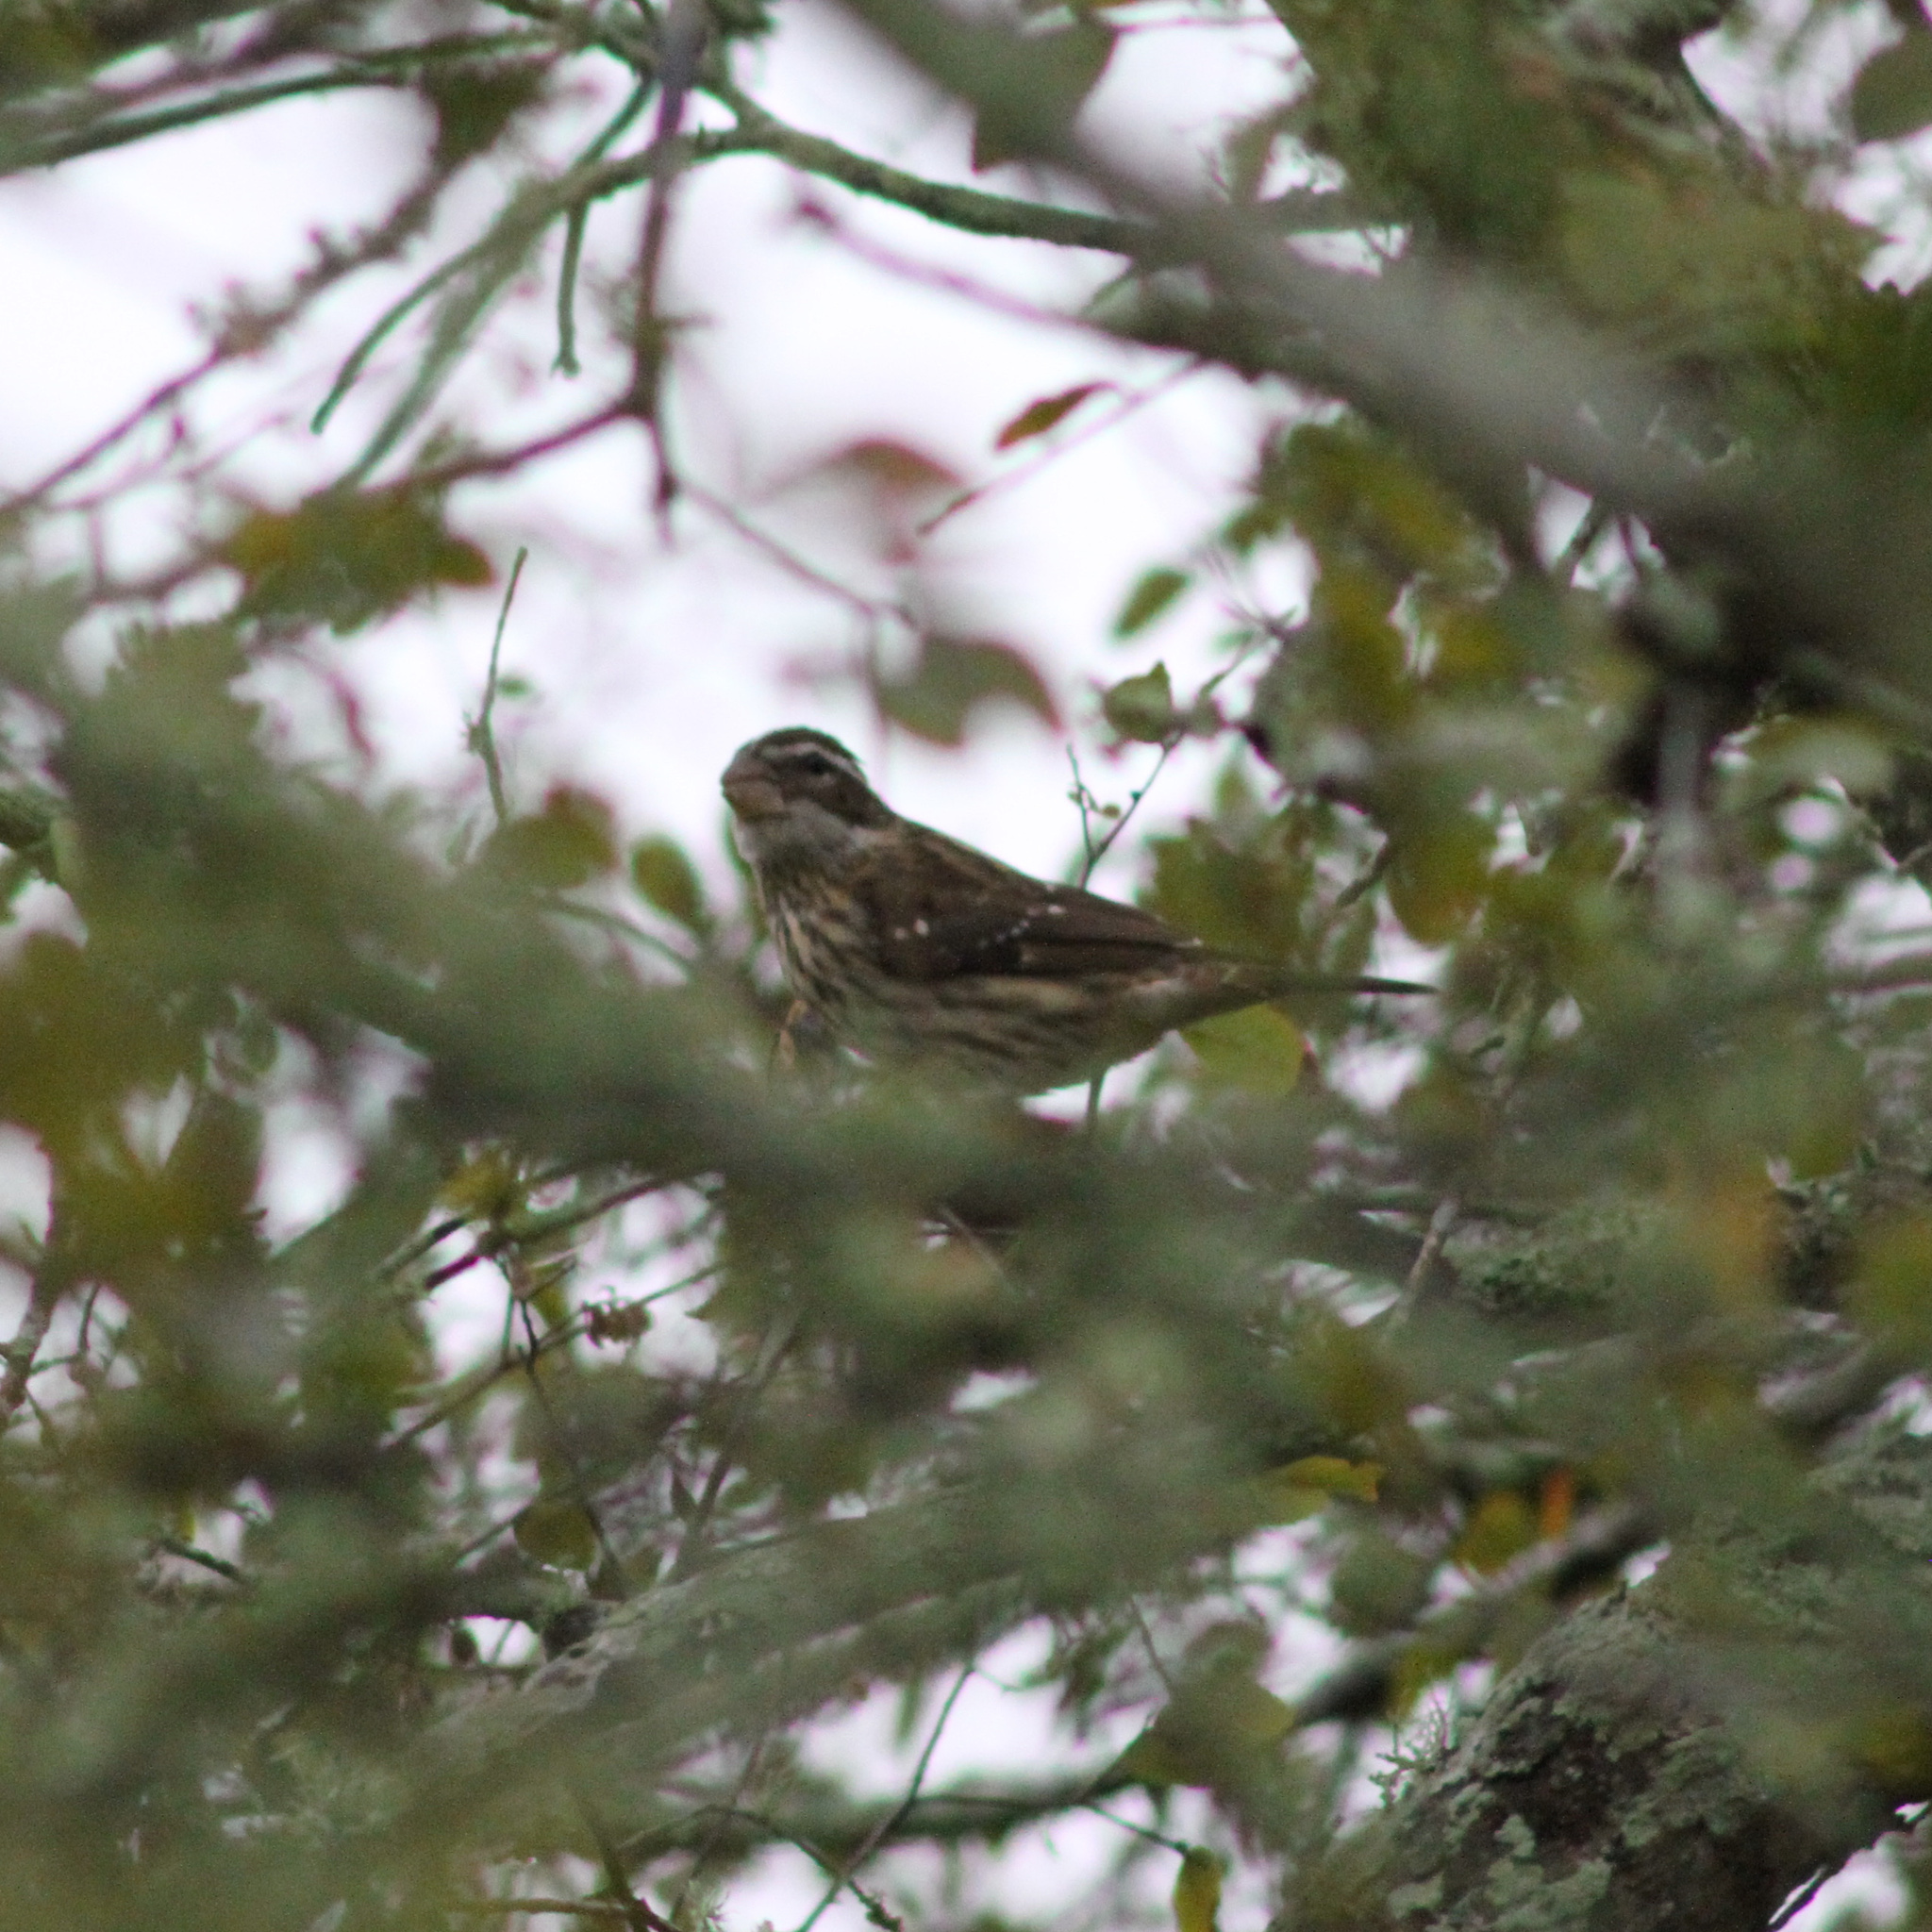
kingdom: Animalia
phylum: Chordata
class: Aves
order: Passeriformes
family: Cardinalidae
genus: Pheucticus
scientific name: Pheucticus ludovicianus
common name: Rose-breasted grosbeak
